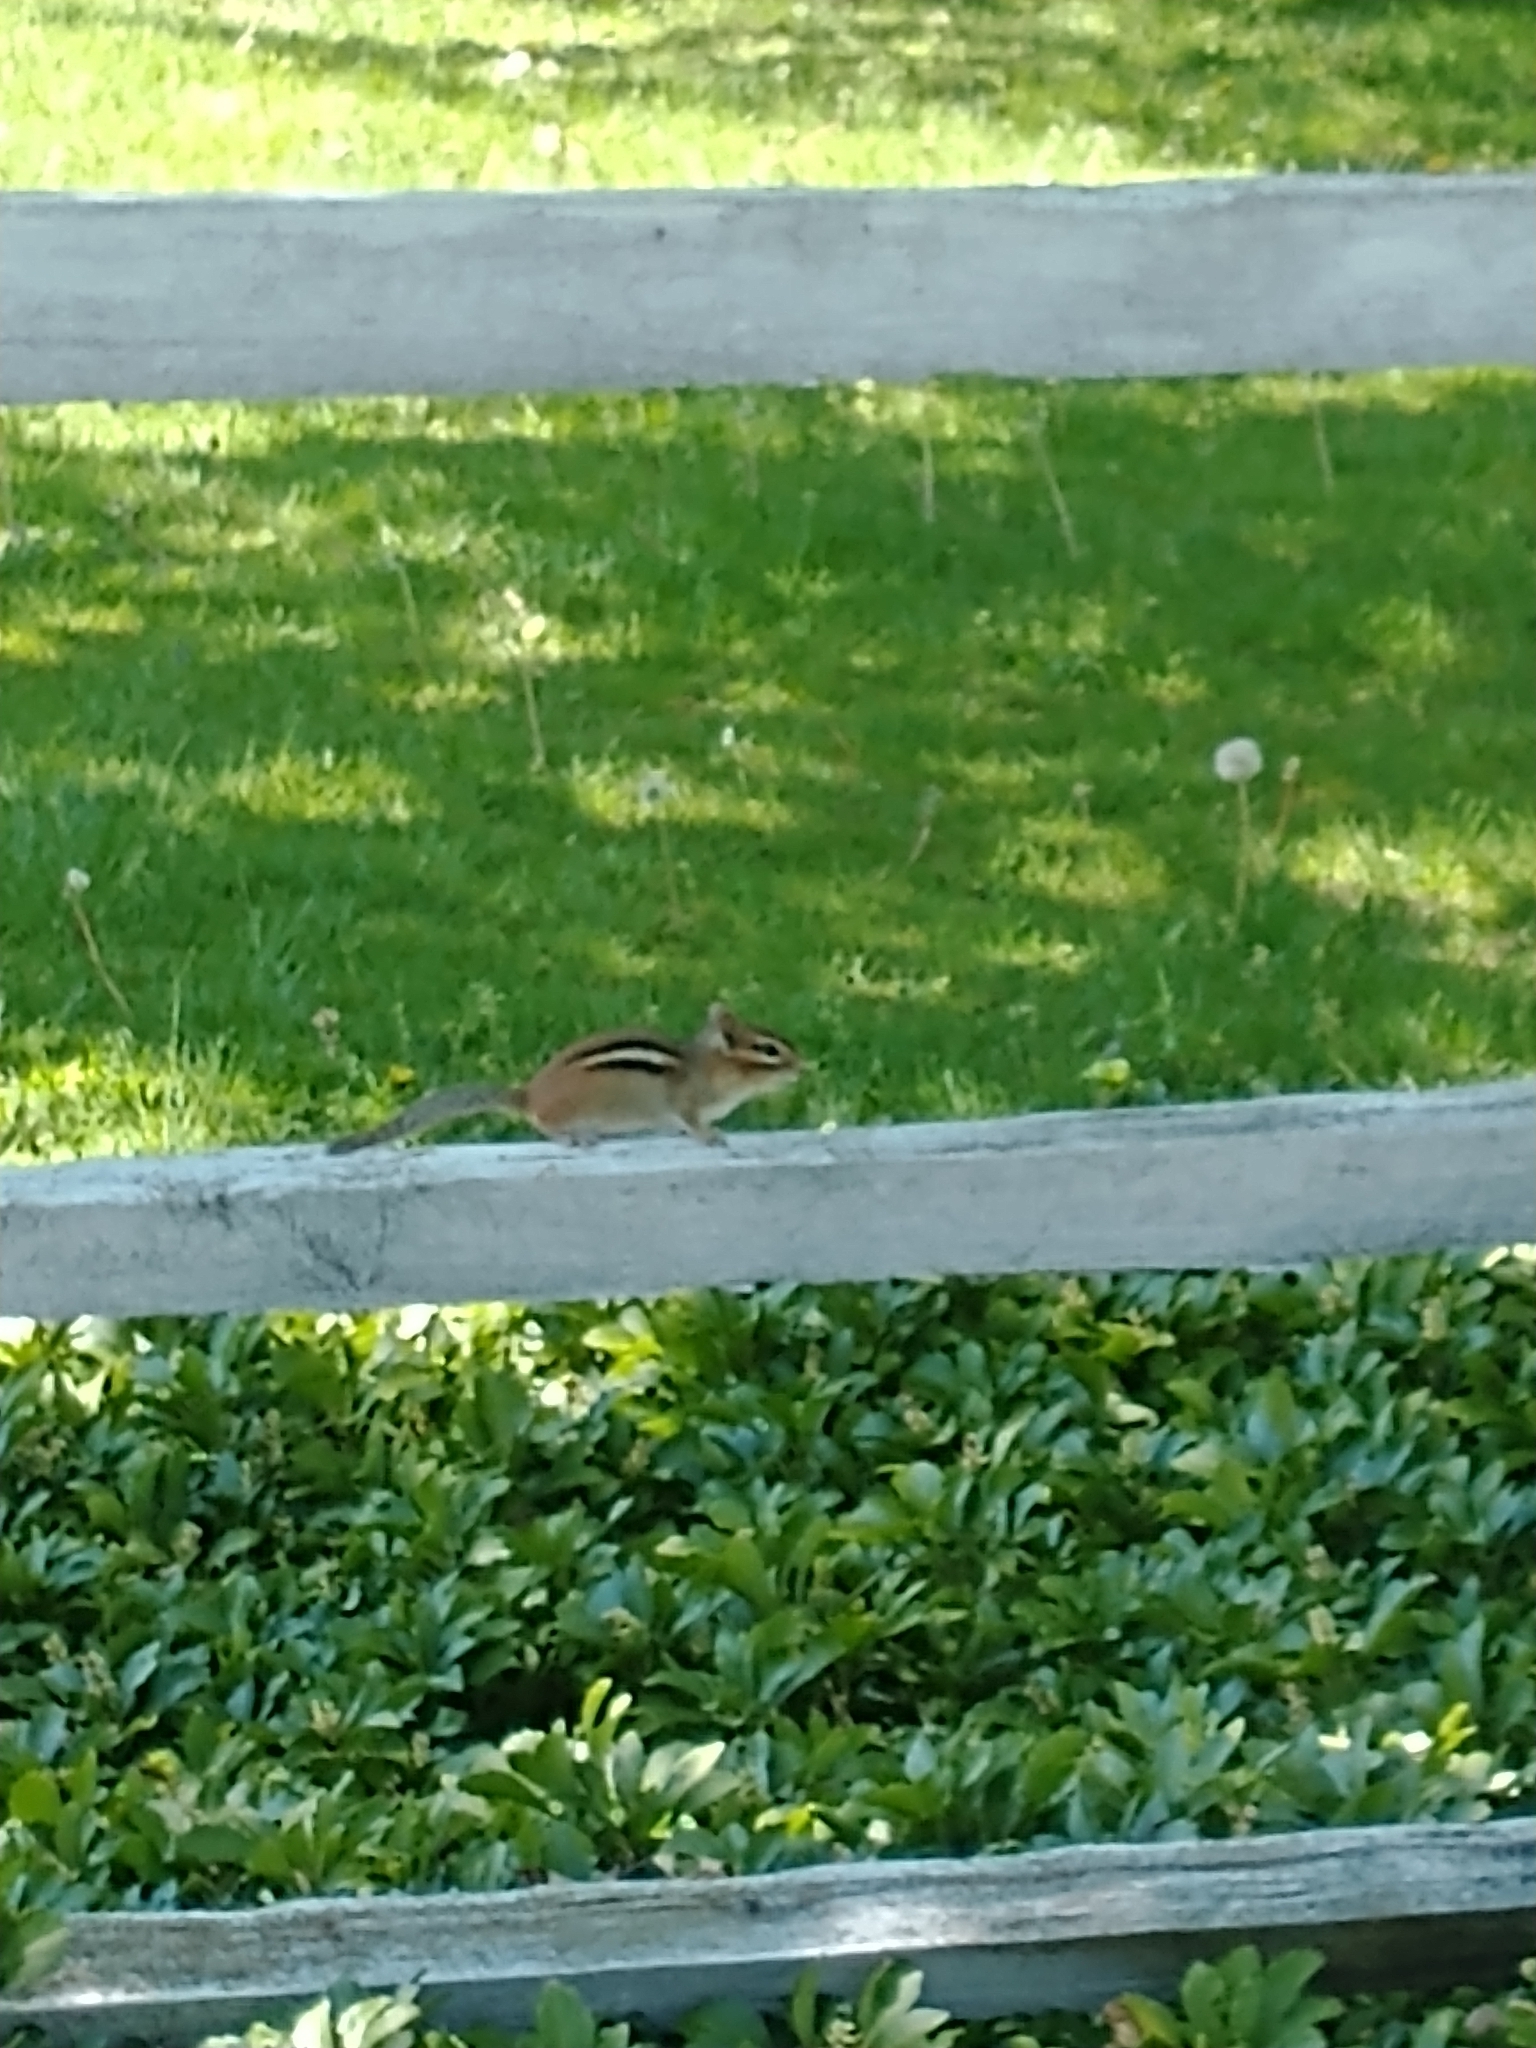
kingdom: Animalia
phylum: Chordata
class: Mammalia
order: Rodentia
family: Sciuridae
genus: Tamias
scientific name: Tamias striatus
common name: Eastern chipmunk
